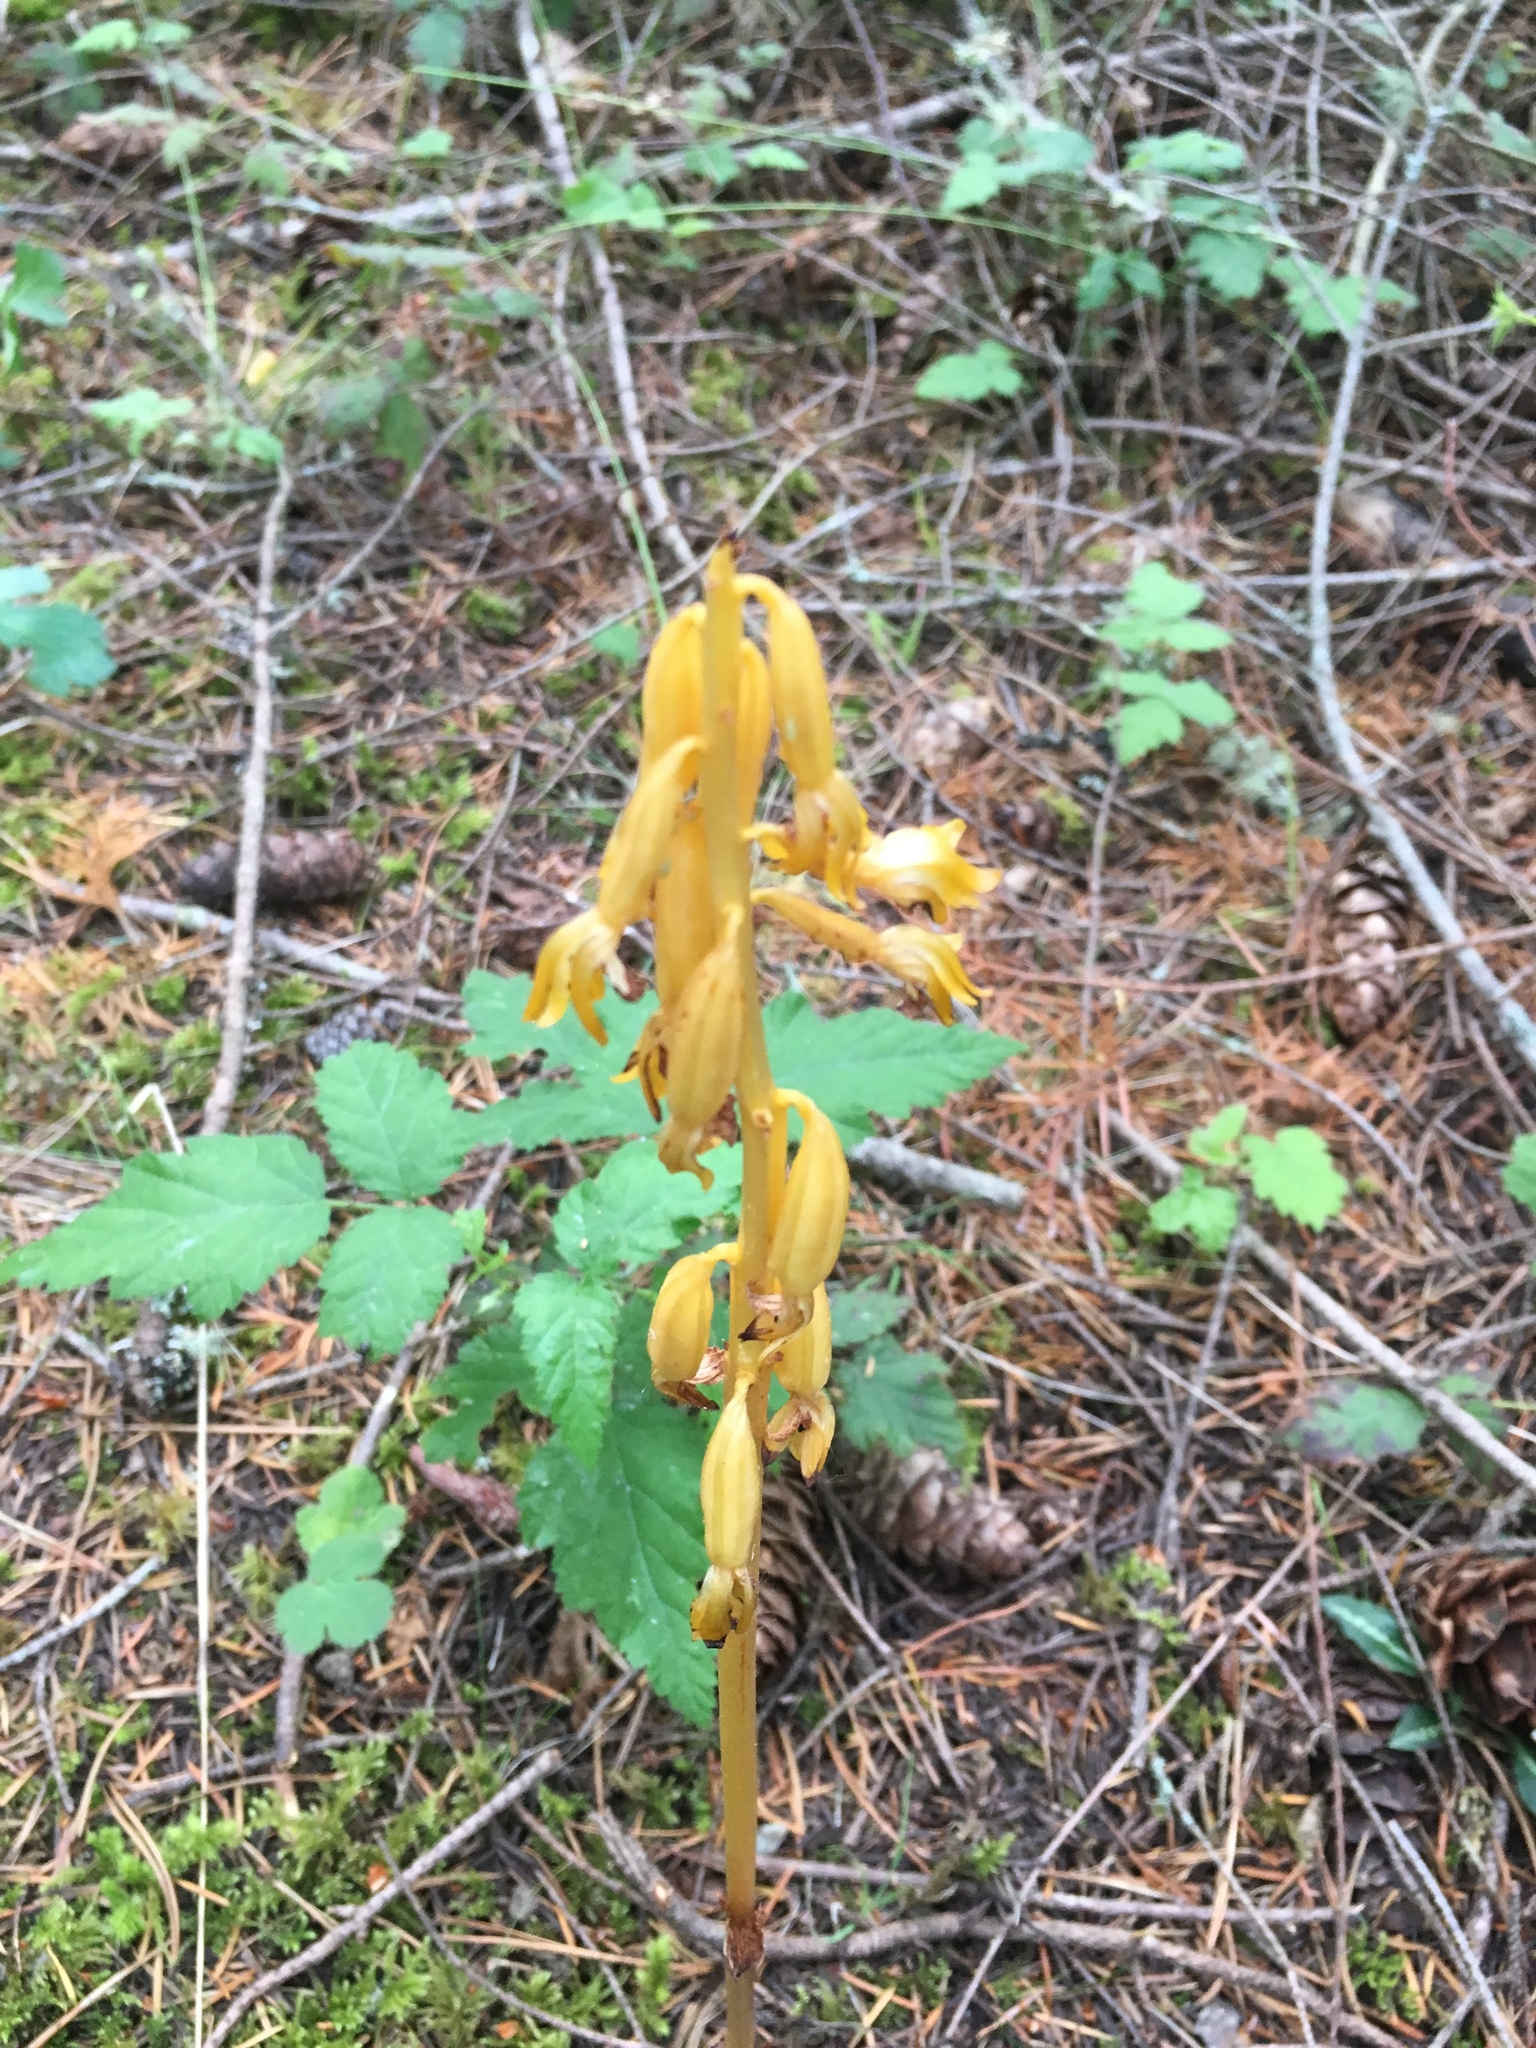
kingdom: Plantae
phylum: Tracheophyta
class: Liliopsida
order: Asparagales
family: Orchidaceae
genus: Corallorhiza
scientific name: Corallorhiza maculata
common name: Spotted coralroot
